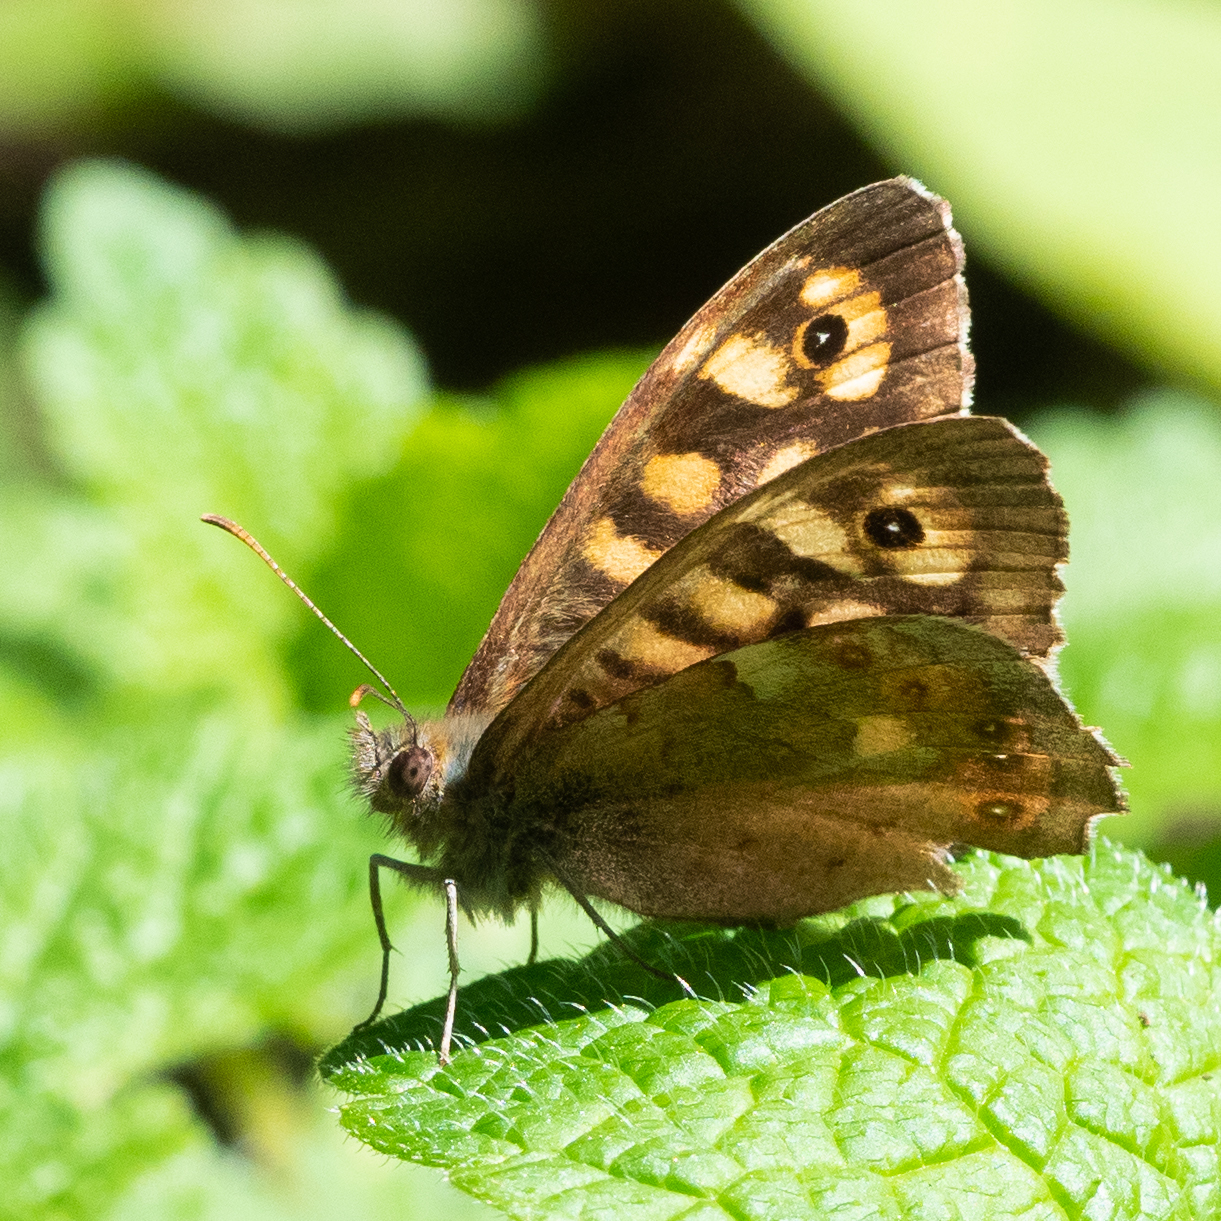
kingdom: Animalia
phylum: Arthropoda
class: Insecta
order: Lepidoptera
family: Nymphalidae
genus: Pararge
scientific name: Pararge aegeria
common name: Speckled wood
